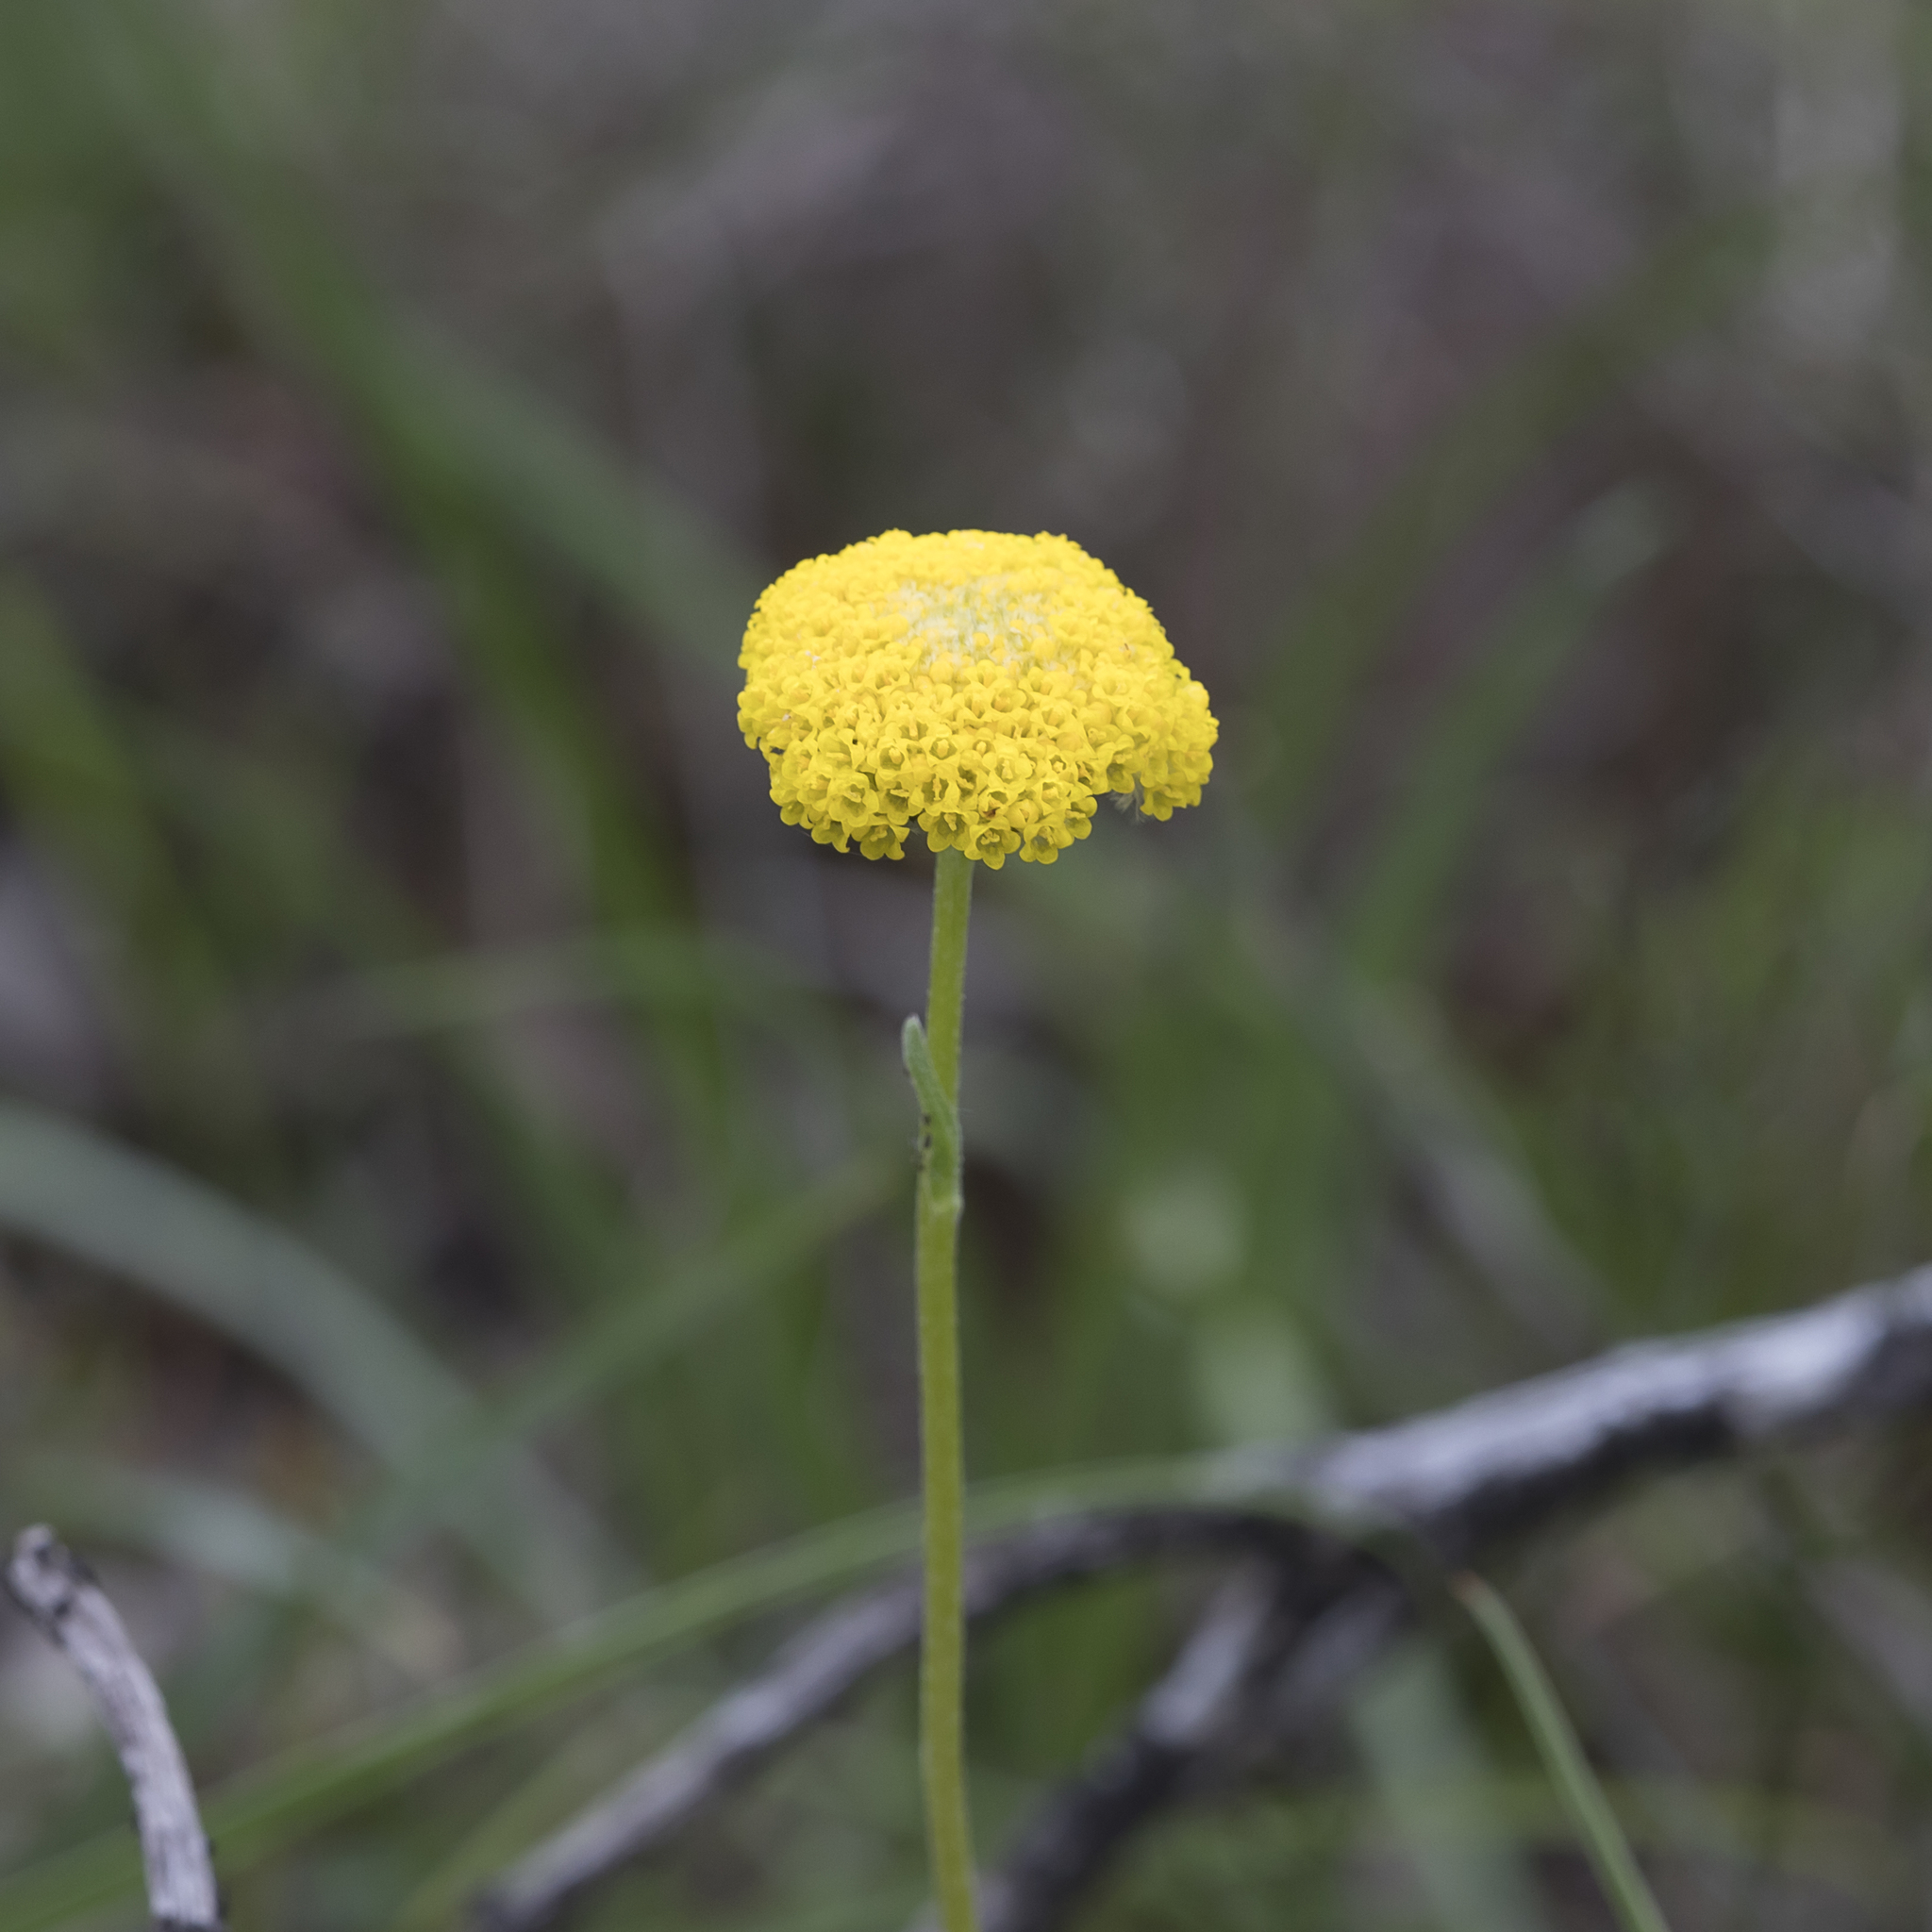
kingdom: Plantae
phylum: Tracheophyta
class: Magnoliopsida
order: Asterales
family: Asteraceae
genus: Craspedia
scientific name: Craspedia variabilis
